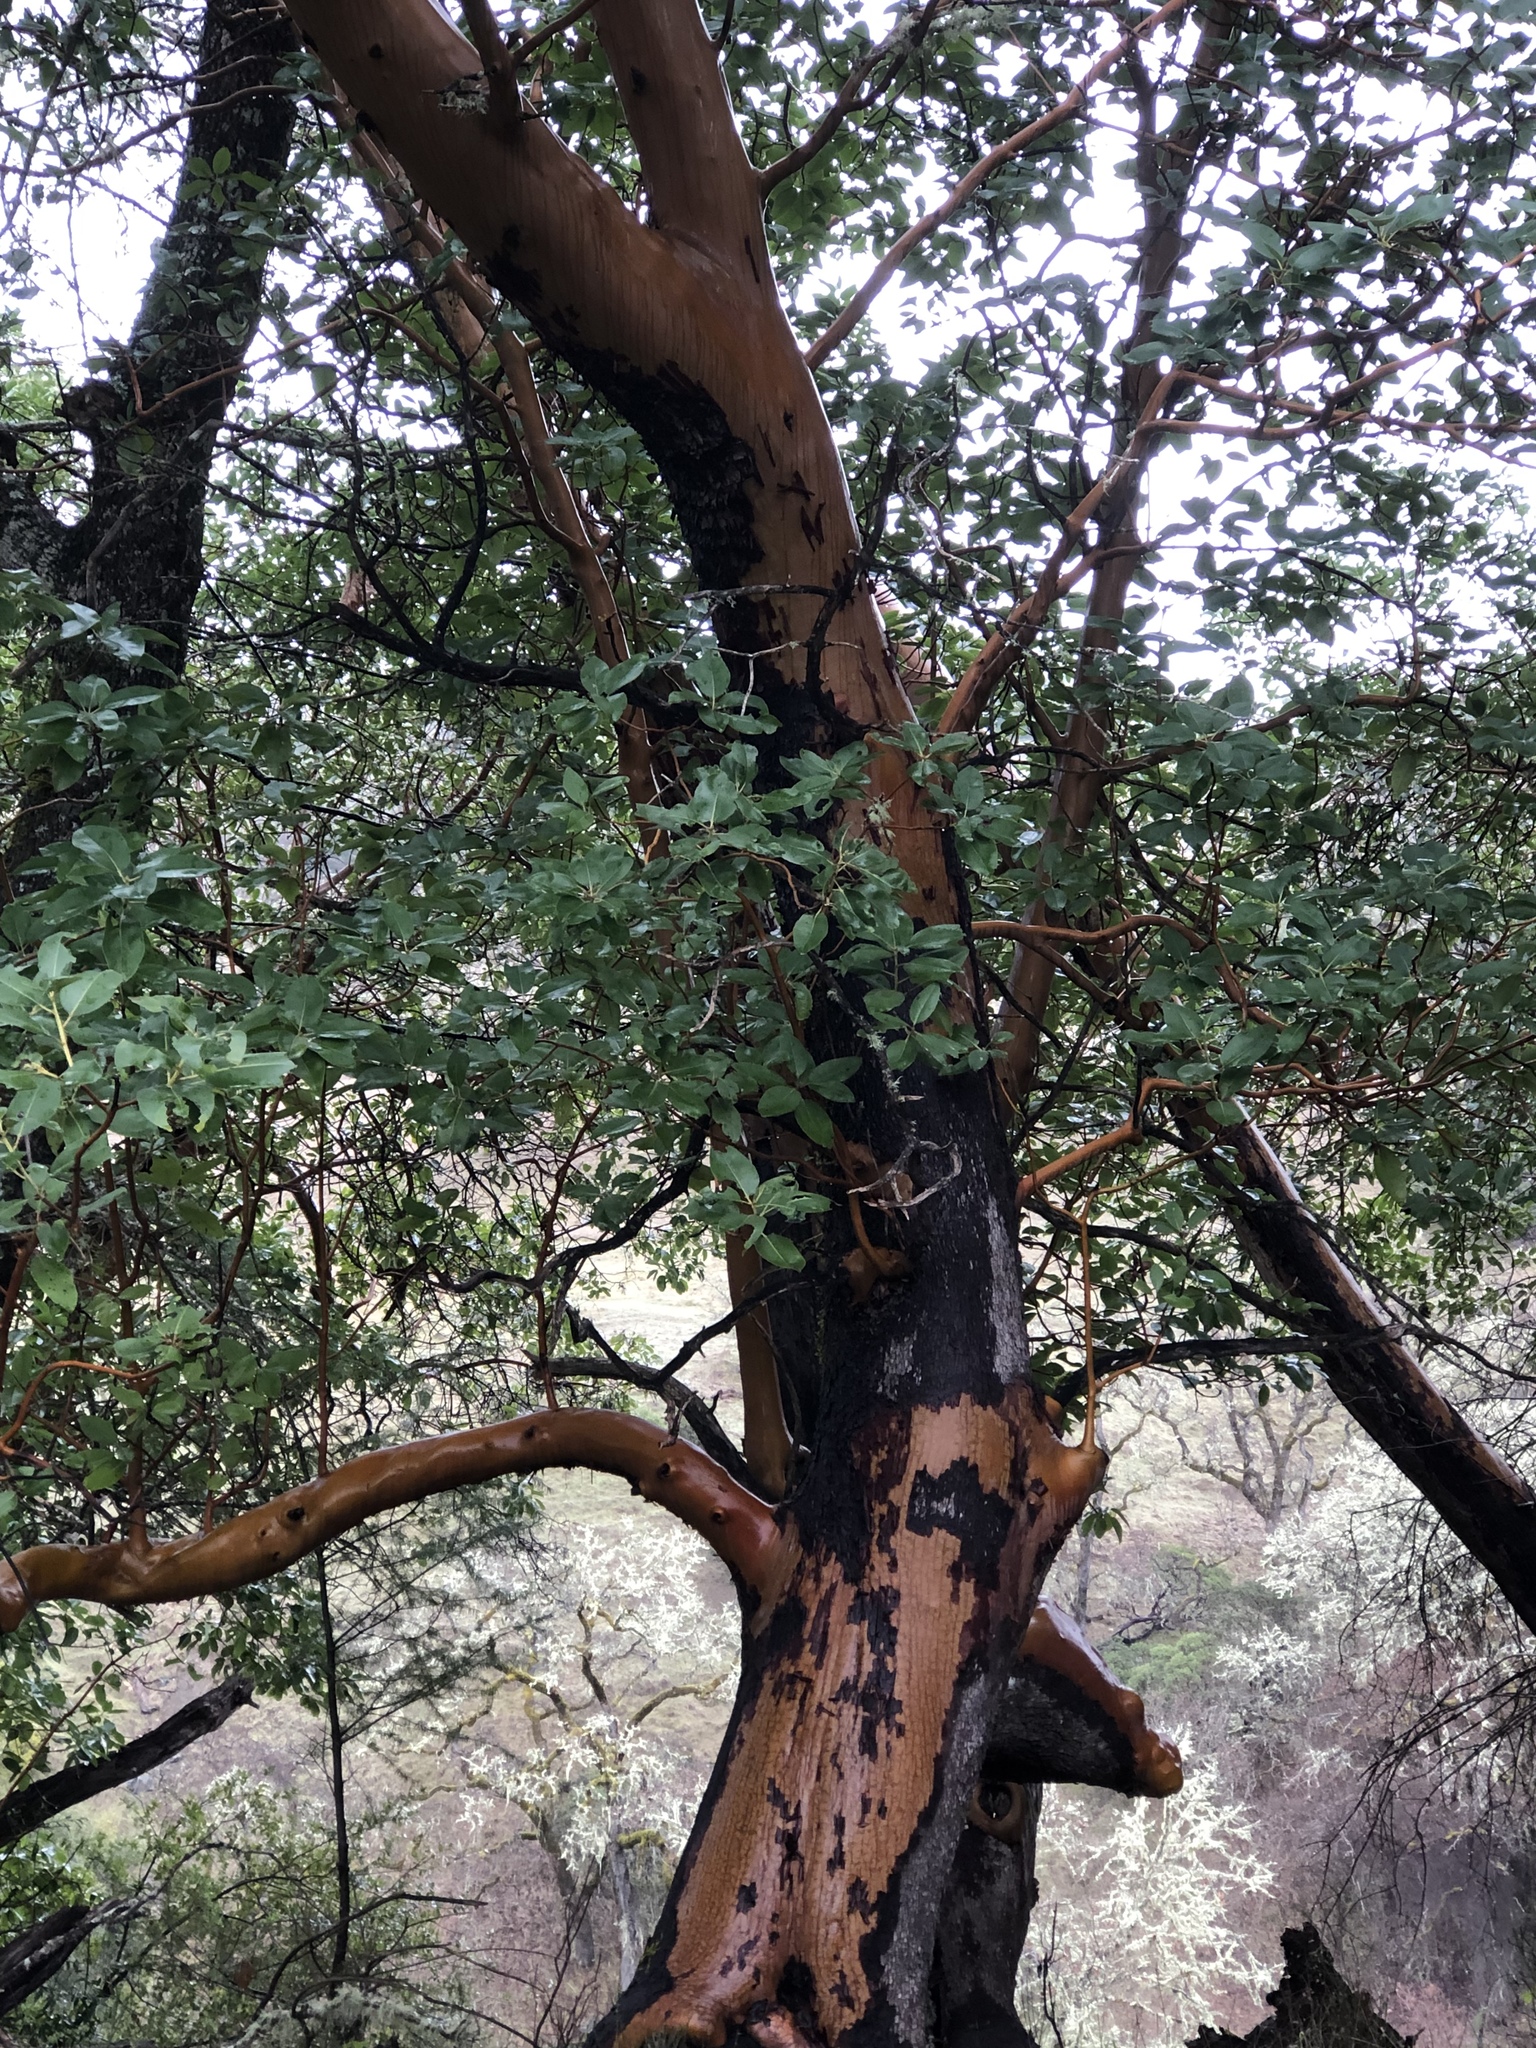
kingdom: Plantae
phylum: Tracheophyta
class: Magnoliopsida
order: Ericales
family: Ericaceae
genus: Arbutus
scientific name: Arbutus menziesii
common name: Pacific madrone
